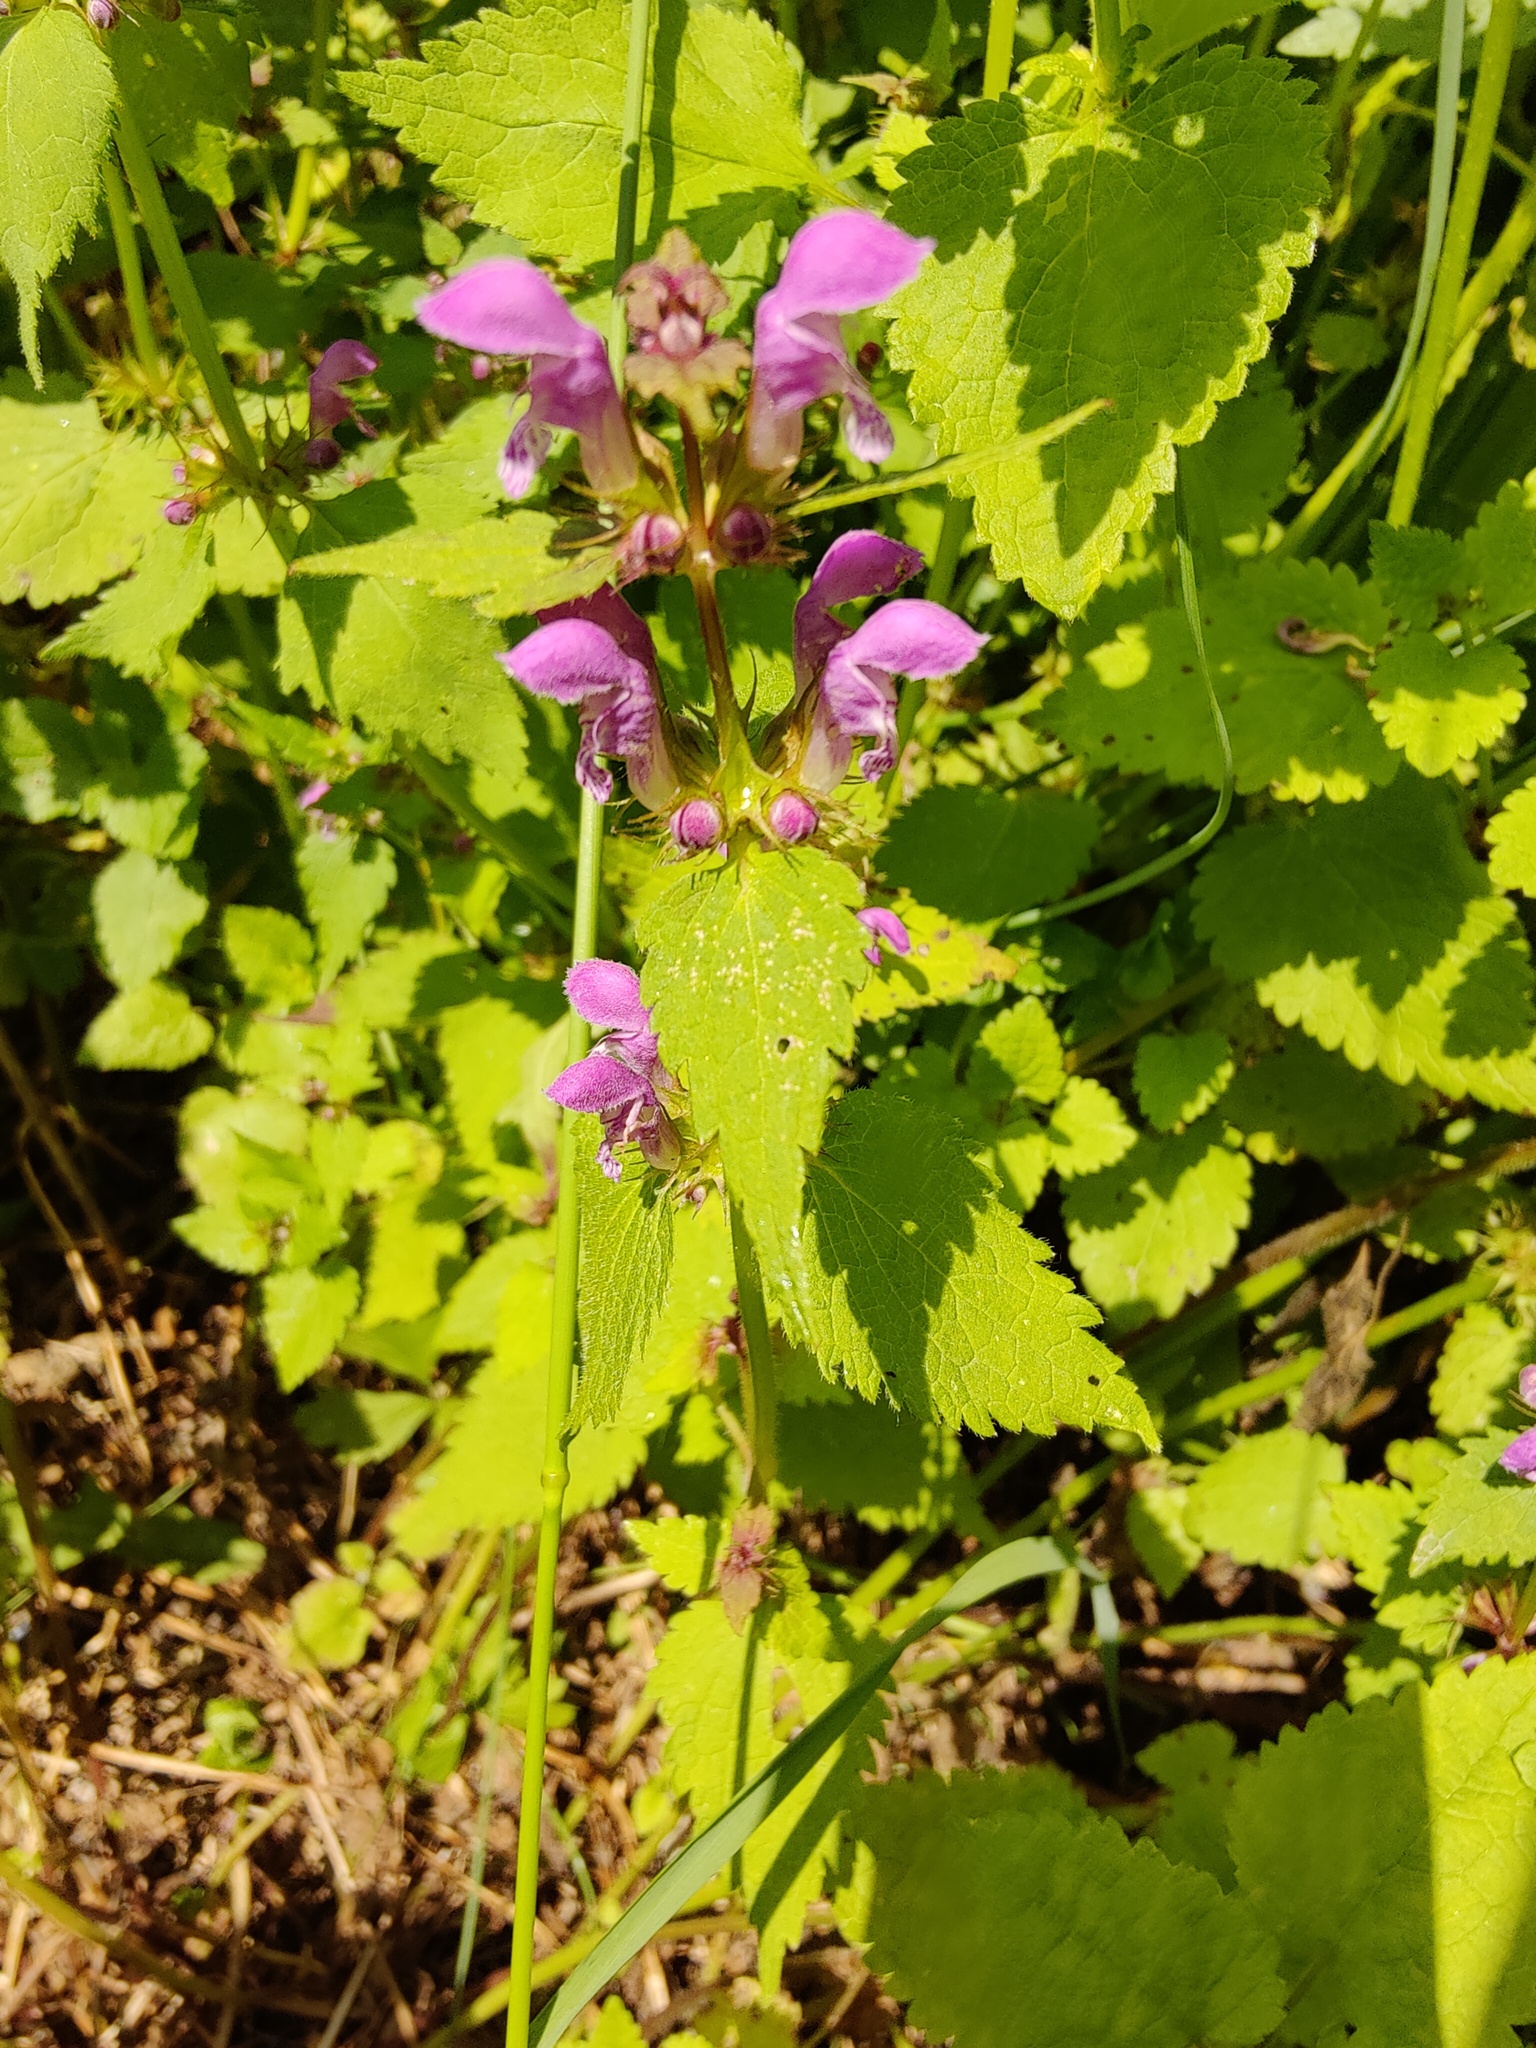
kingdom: Plantae
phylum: Tracheophyta
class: Magnoliopsida
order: Lamiales
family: Lamiaceae
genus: Lamium
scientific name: Lamium maculatum
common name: Spotted dead-nettle
